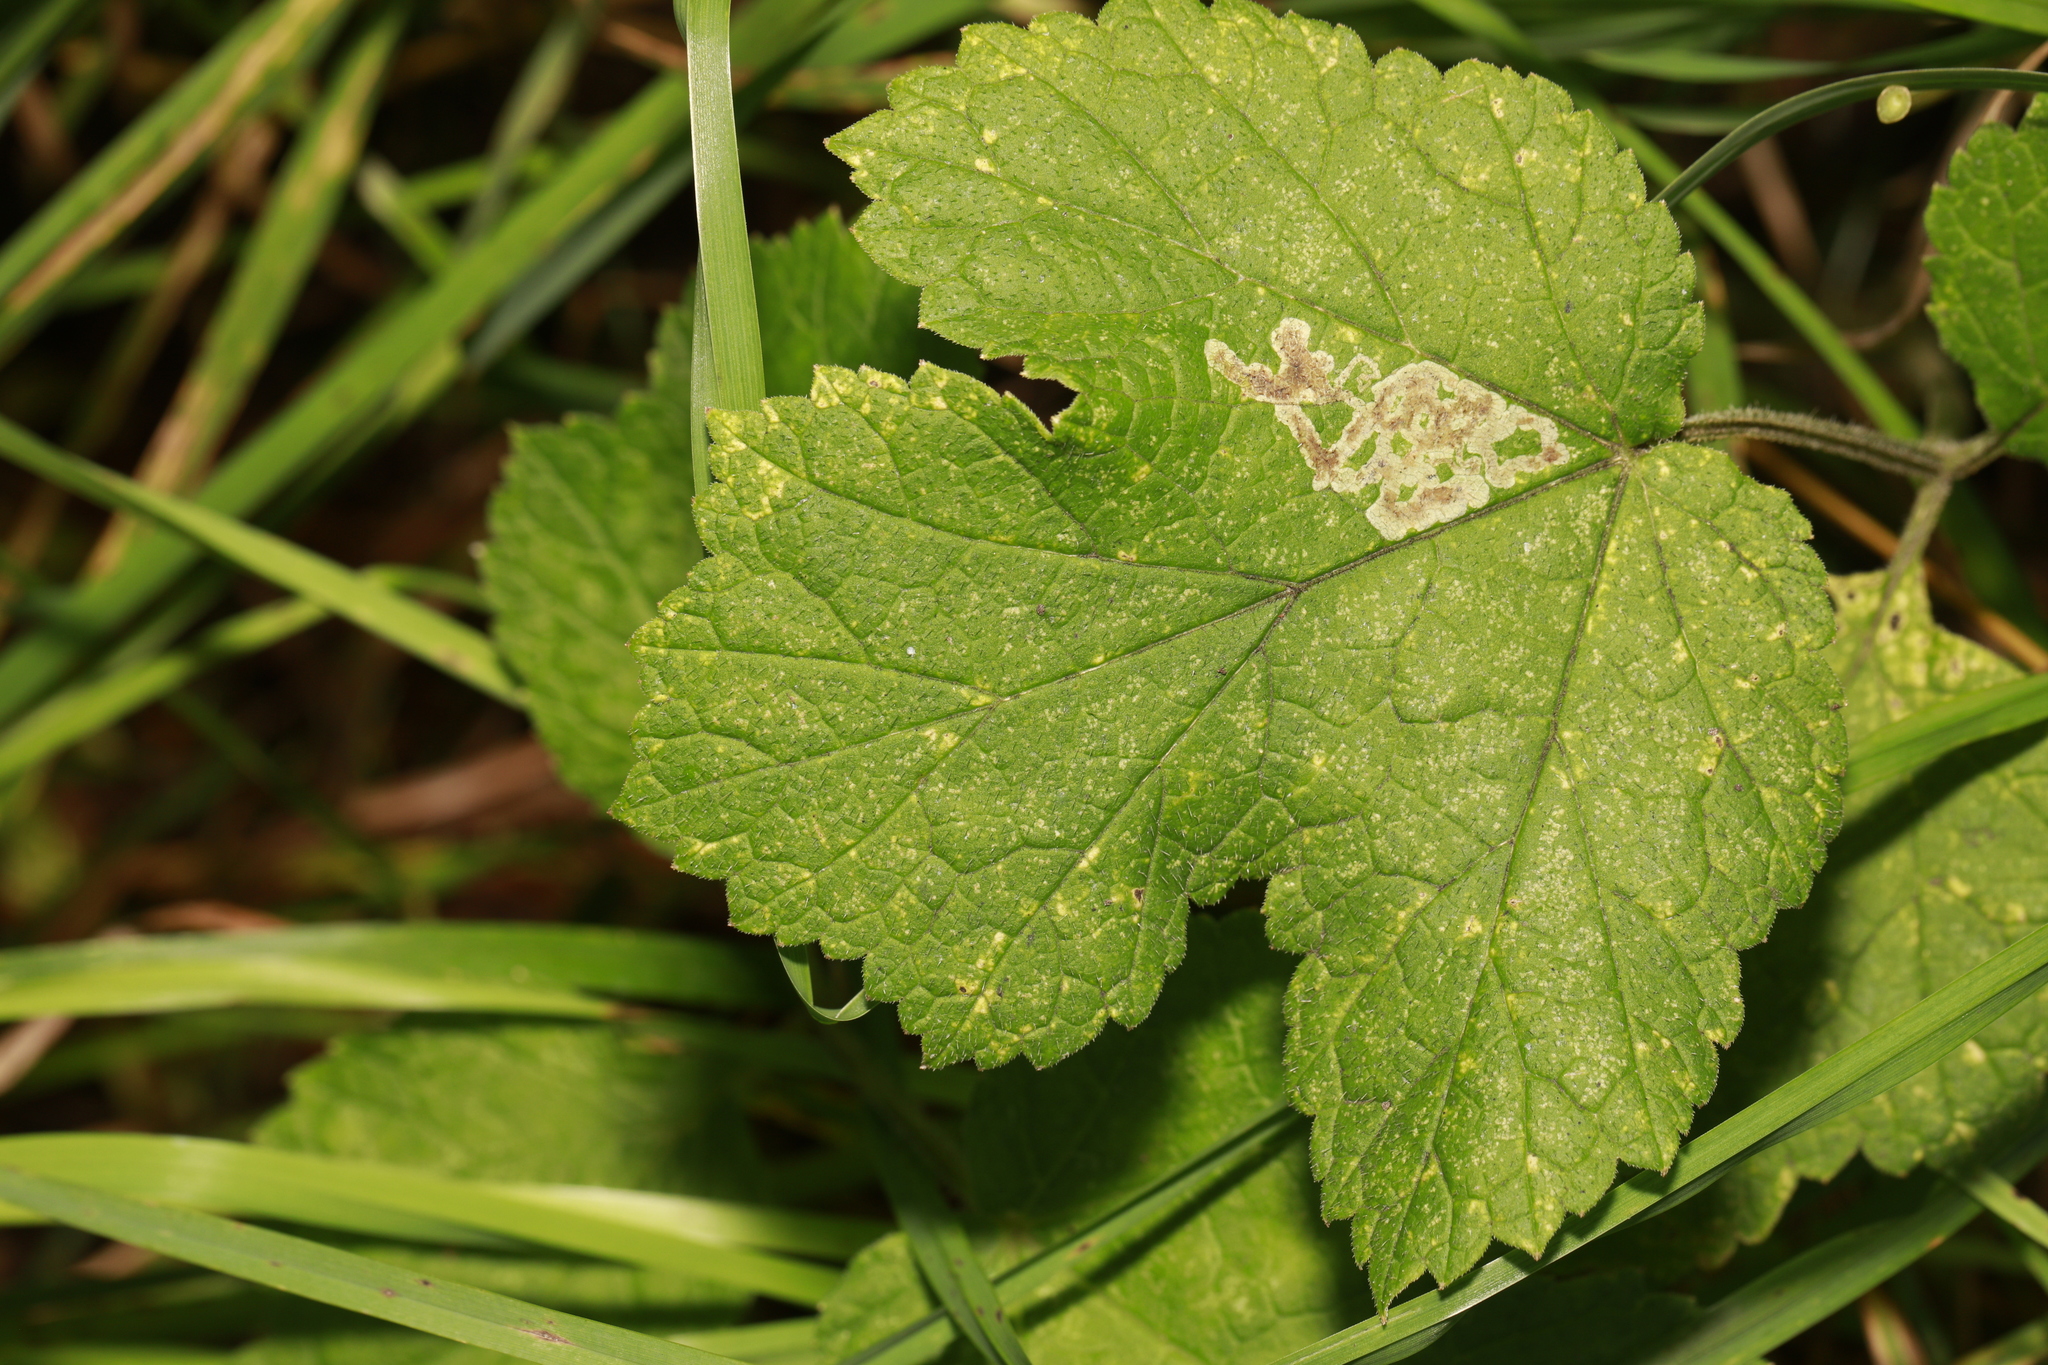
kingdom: Animalia
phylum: Arthropoda
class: Insecta
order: Diptera
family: Agromyzidae
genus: Phytomyza
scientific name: Phytomyza sphondyliivora
